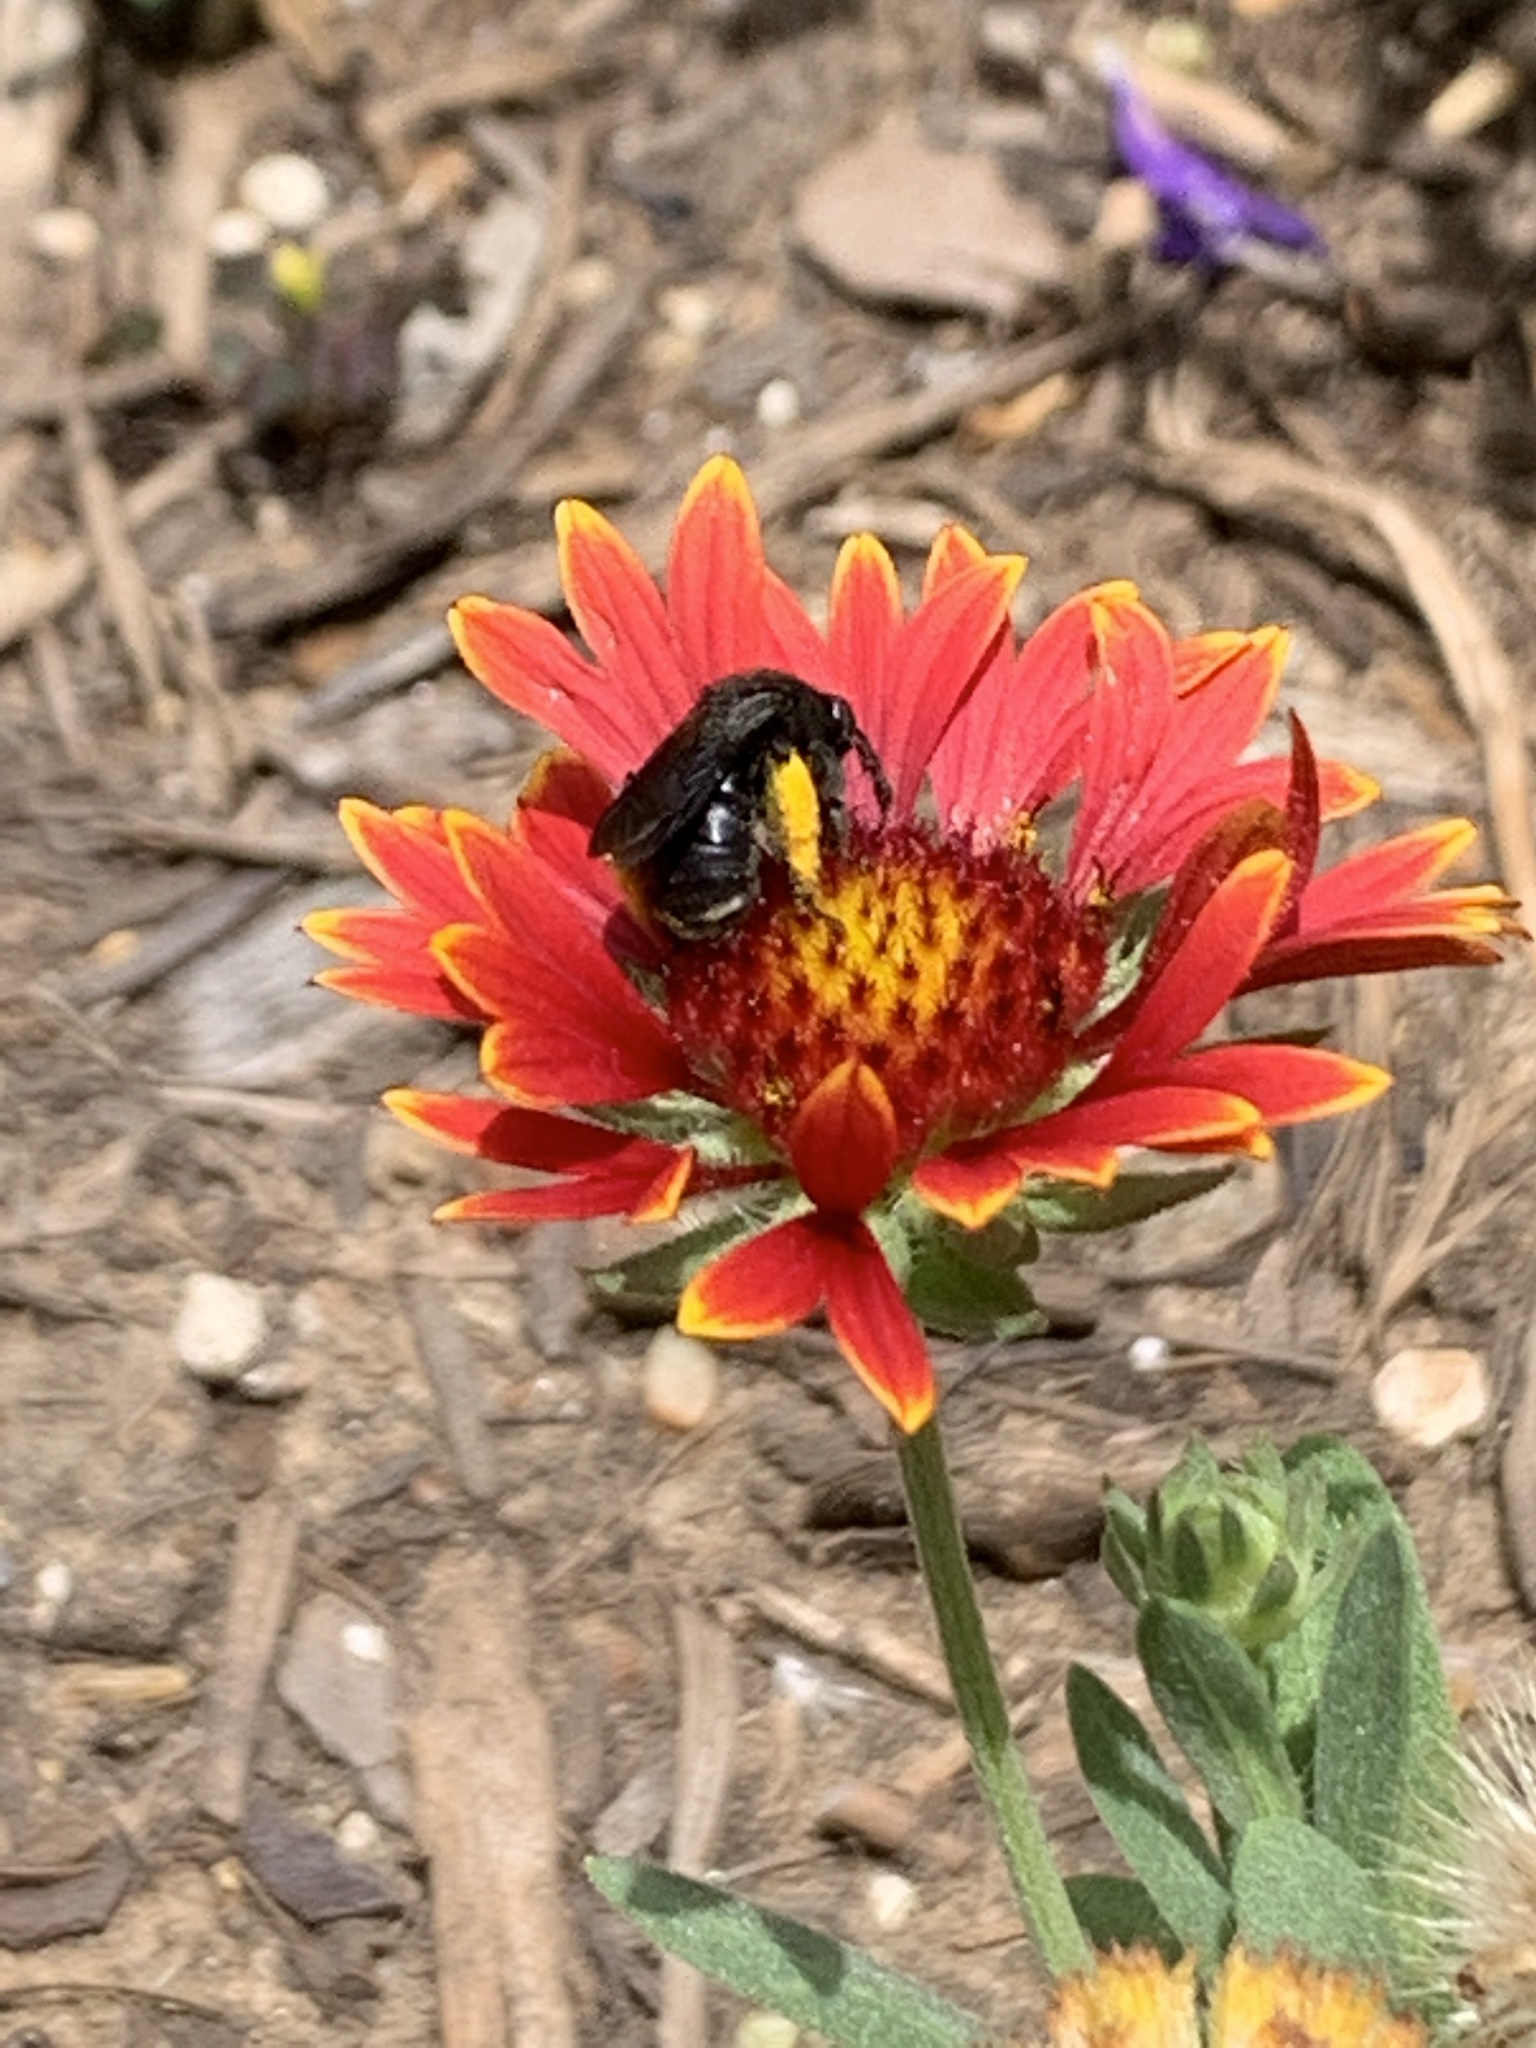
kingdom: Animalia
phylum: Arthropoda
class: Insecta
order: Hymenoptera
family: Apidae
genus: Melissodes
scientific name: Melissodes bimaculatus
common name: Two-spotted long-horned bee
